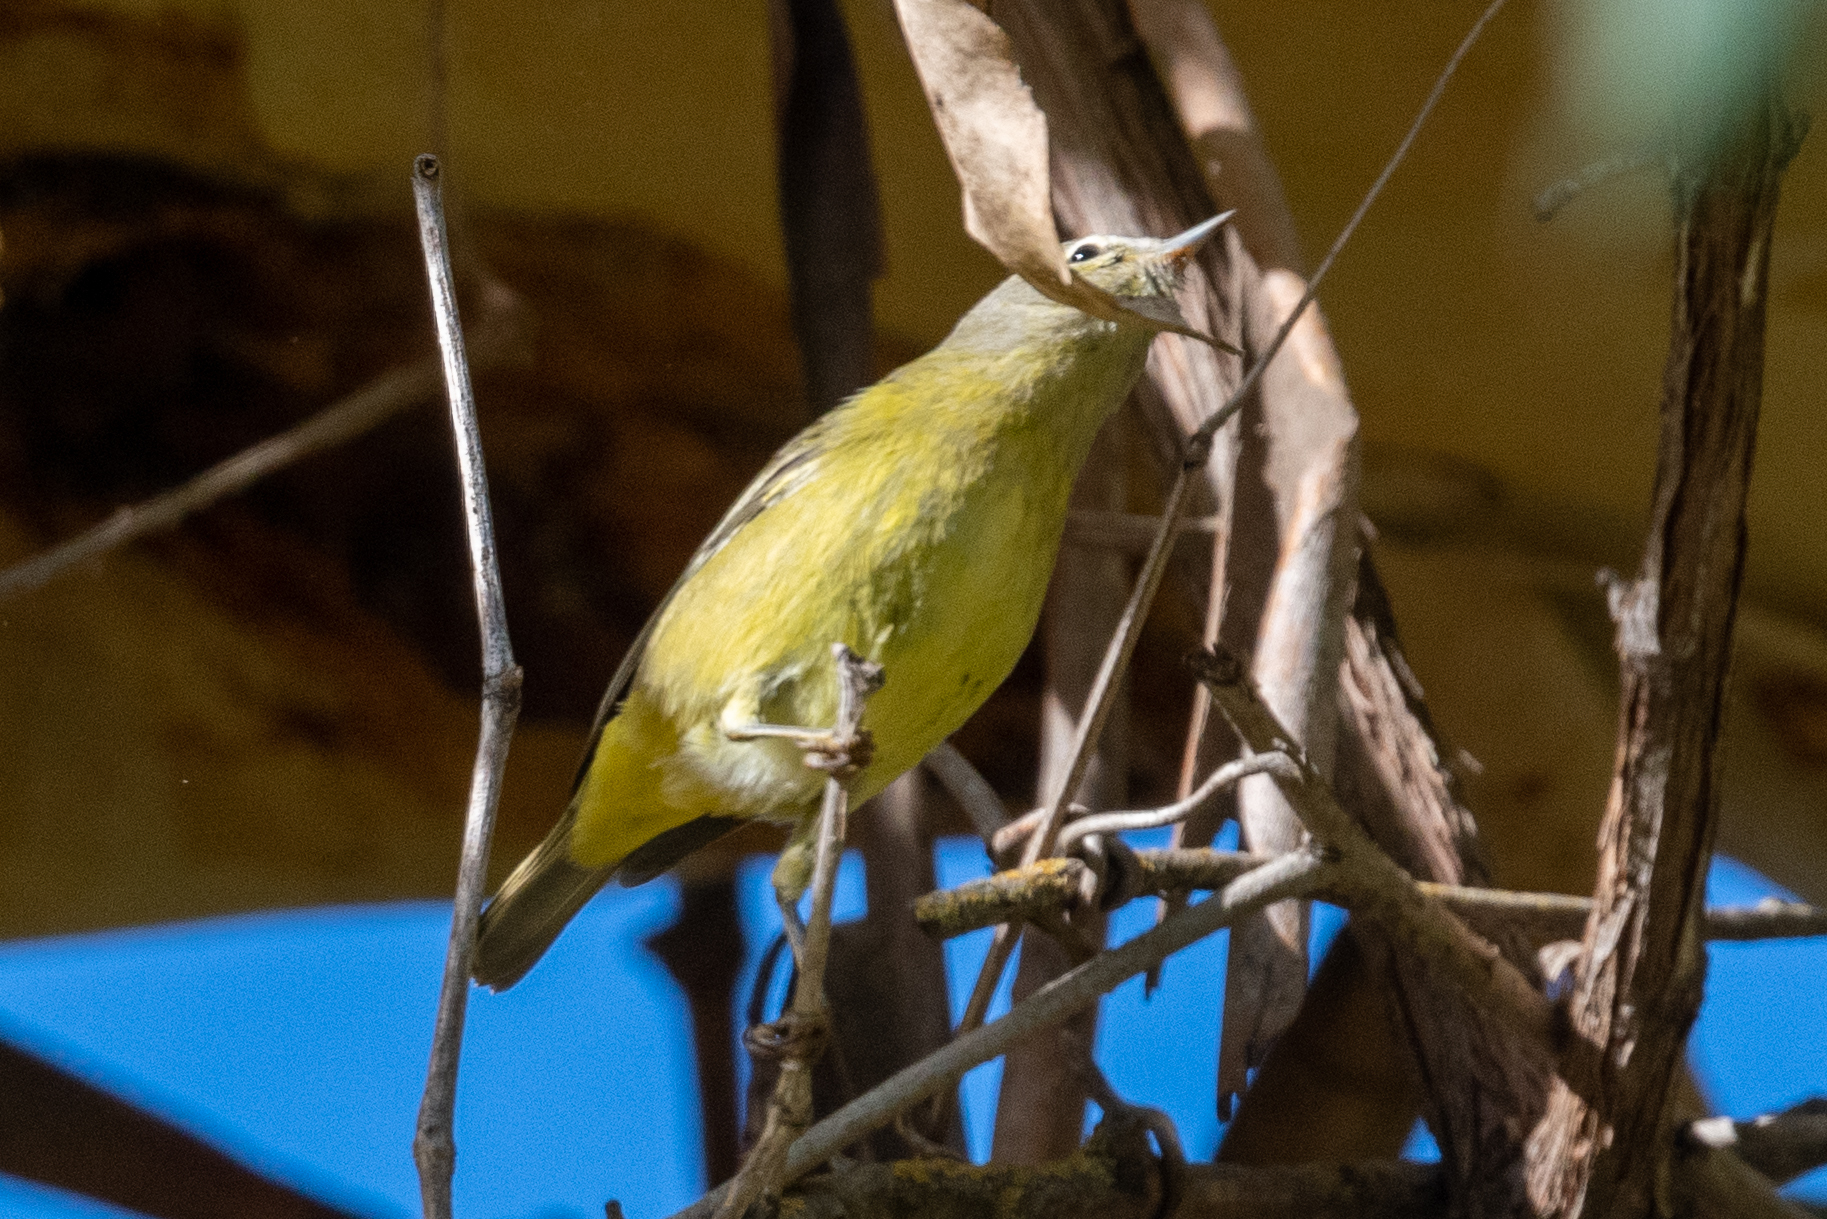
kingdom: Animalia
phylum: Chordata
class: Aves
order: Passeriformes
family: Parulidae
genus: Leiothlypis
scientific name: Leiothlypis celata
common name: Orange-crowned warbler
